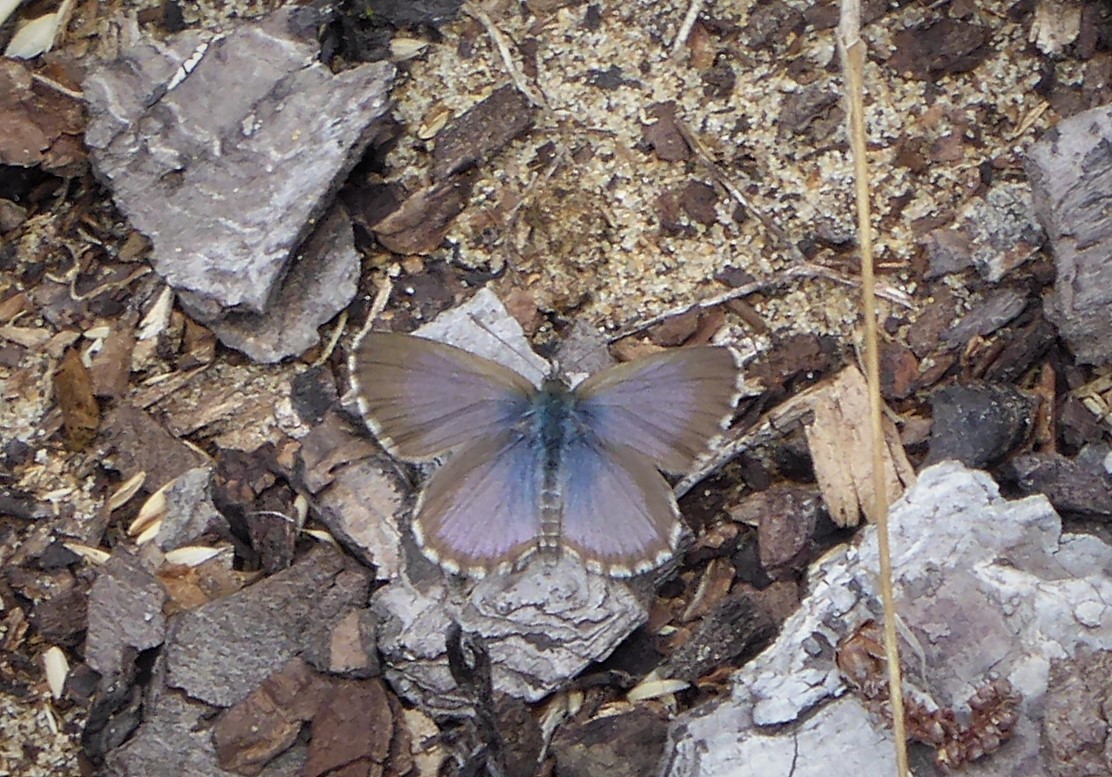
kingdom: Animalia
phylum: Arthropoda
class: Insecta
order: Lepidoptera
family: Lycaenidae
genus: Zizina
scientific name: Zizina oxleyi
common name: Southern blue
